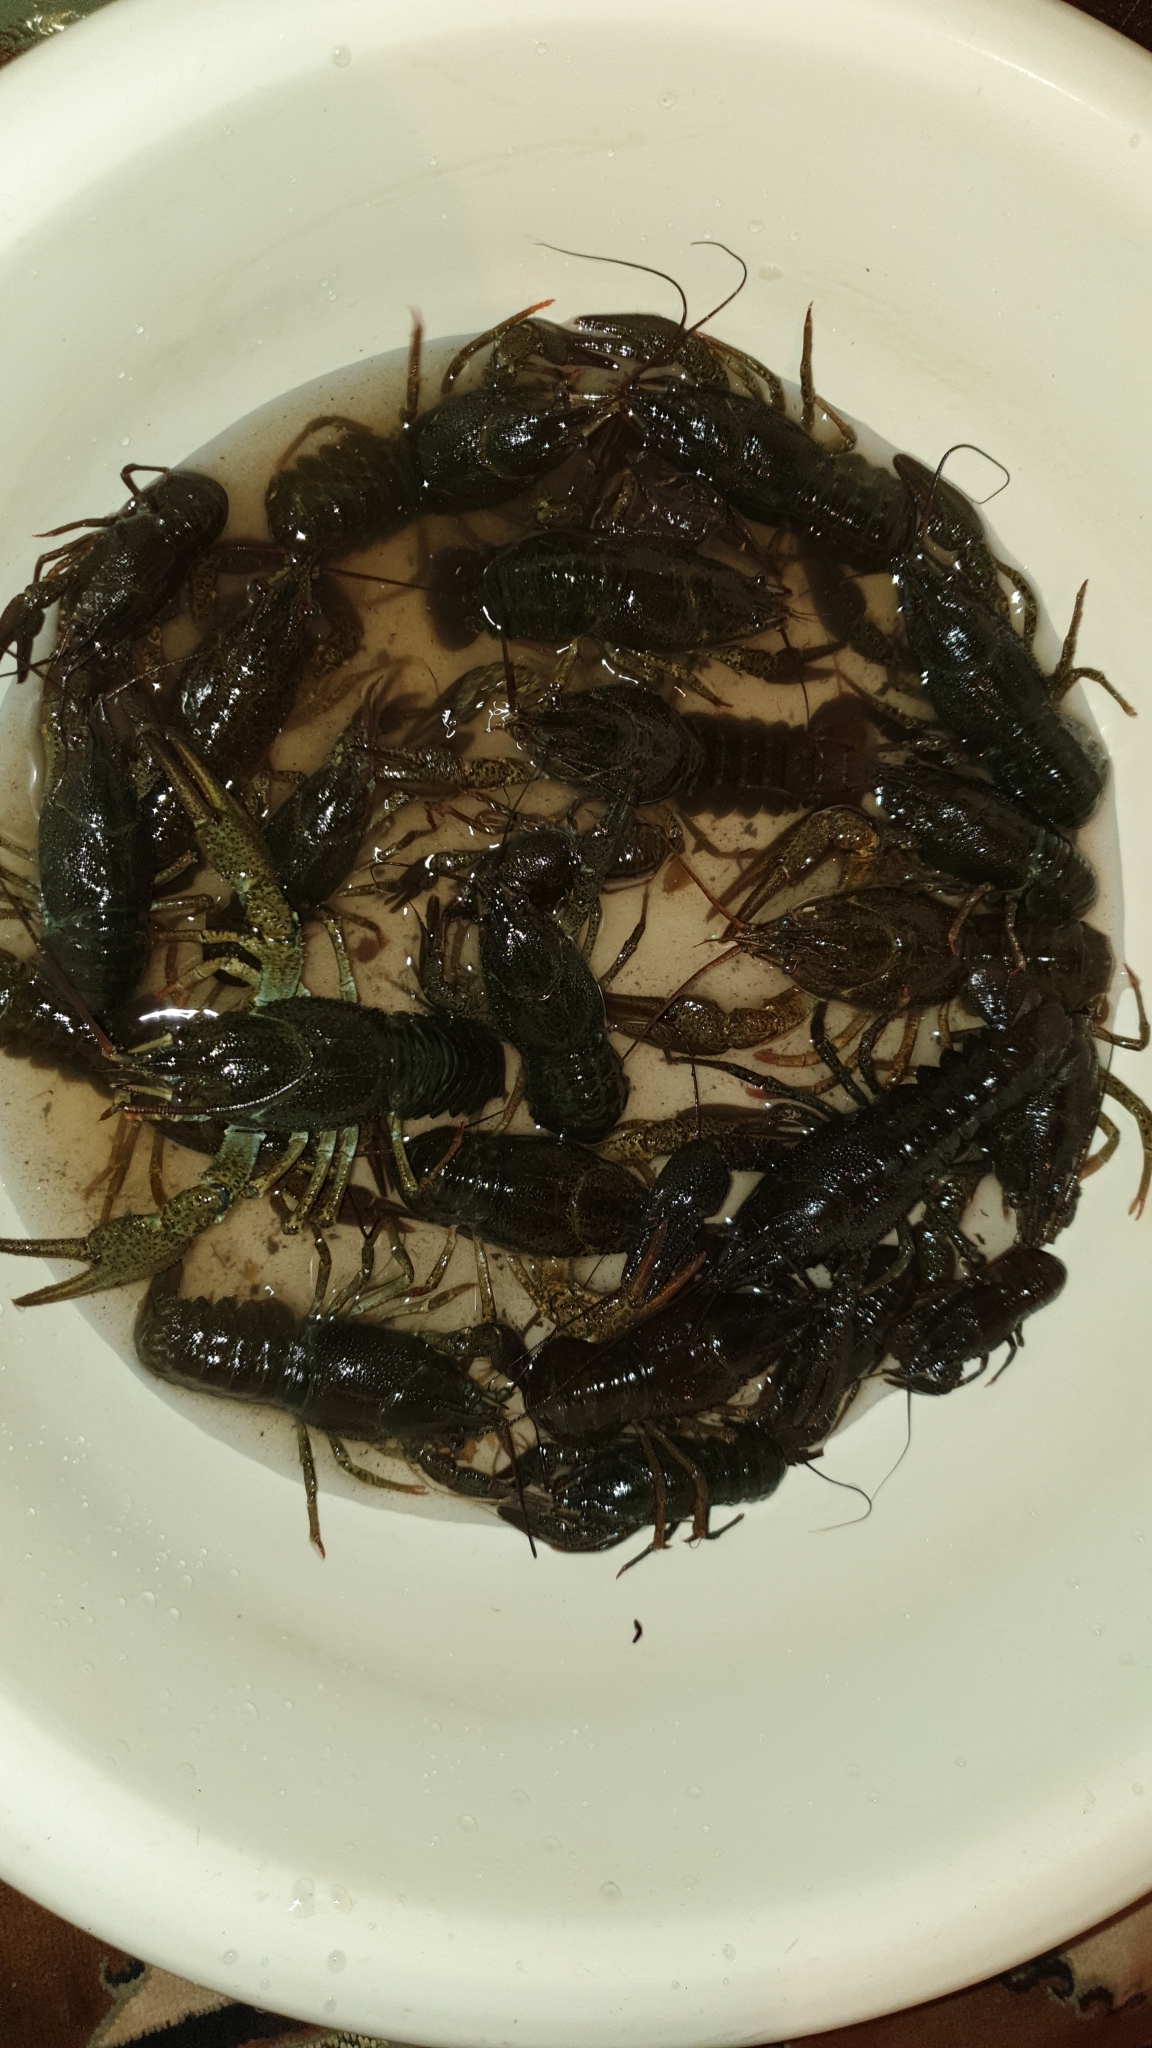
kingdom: Animalia
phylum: Arthropoda
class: Malacostraca
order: Decapoda
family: Astacidae
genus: Pontastacus
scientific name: Pontastacus leptodactylus
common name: Danube crayfish
